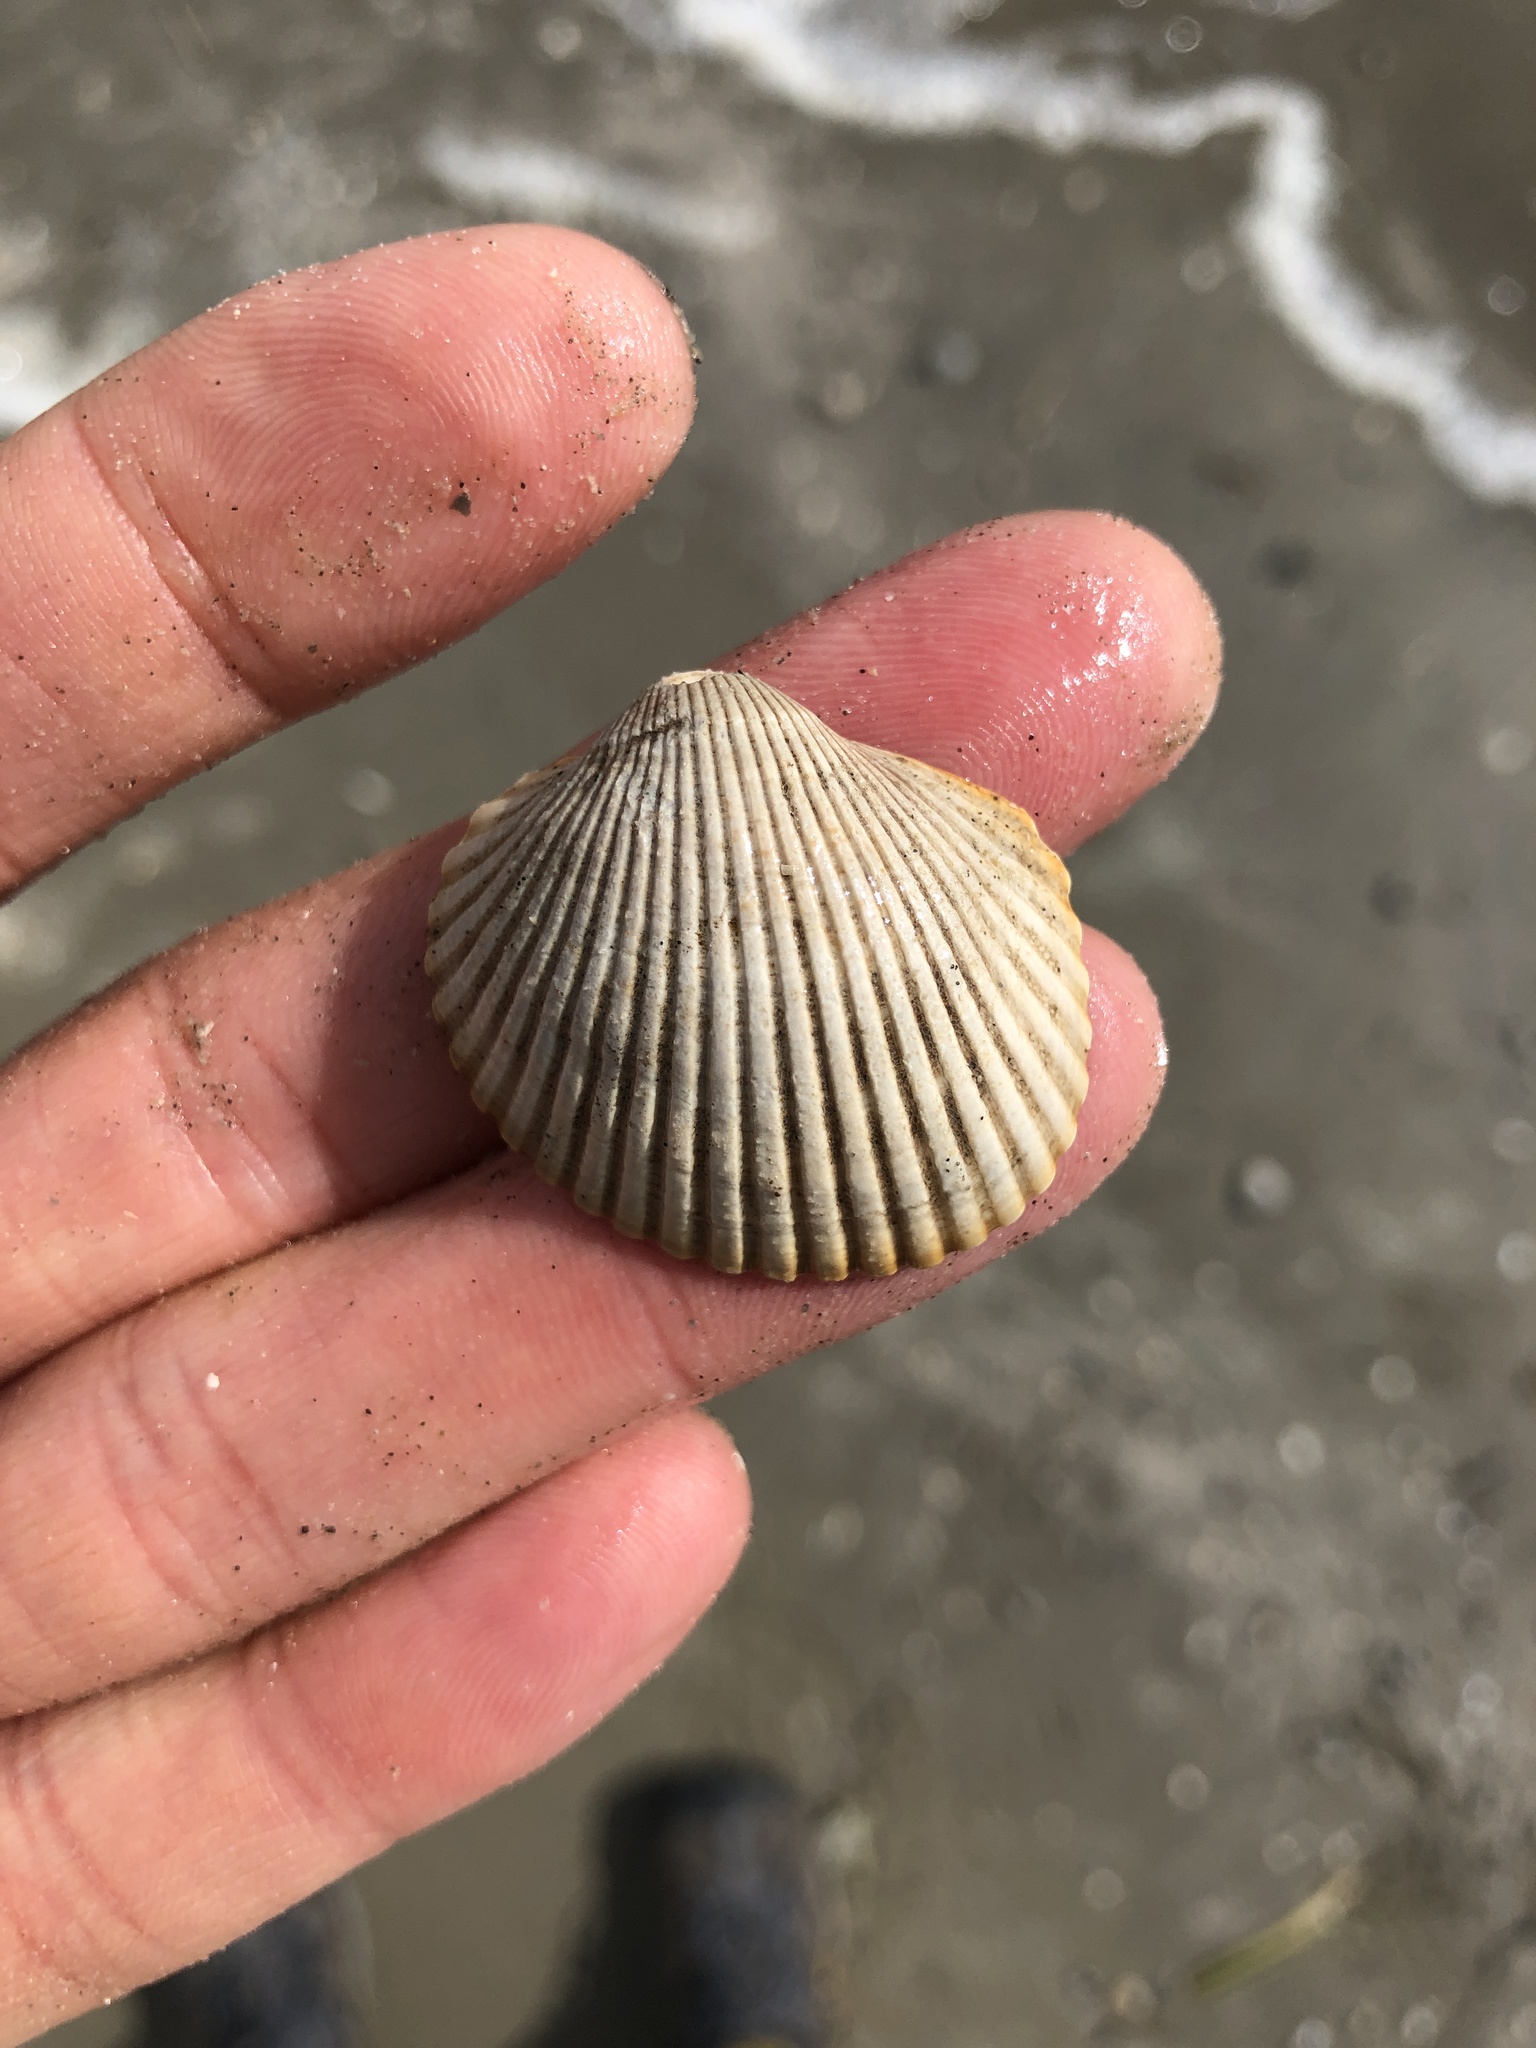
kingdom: Animalia
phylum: Mollusca
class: Bivalvia
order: Arcida
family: Arcidae
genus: Lunarca
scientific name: Lunarca ovalis
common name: Blood ark
